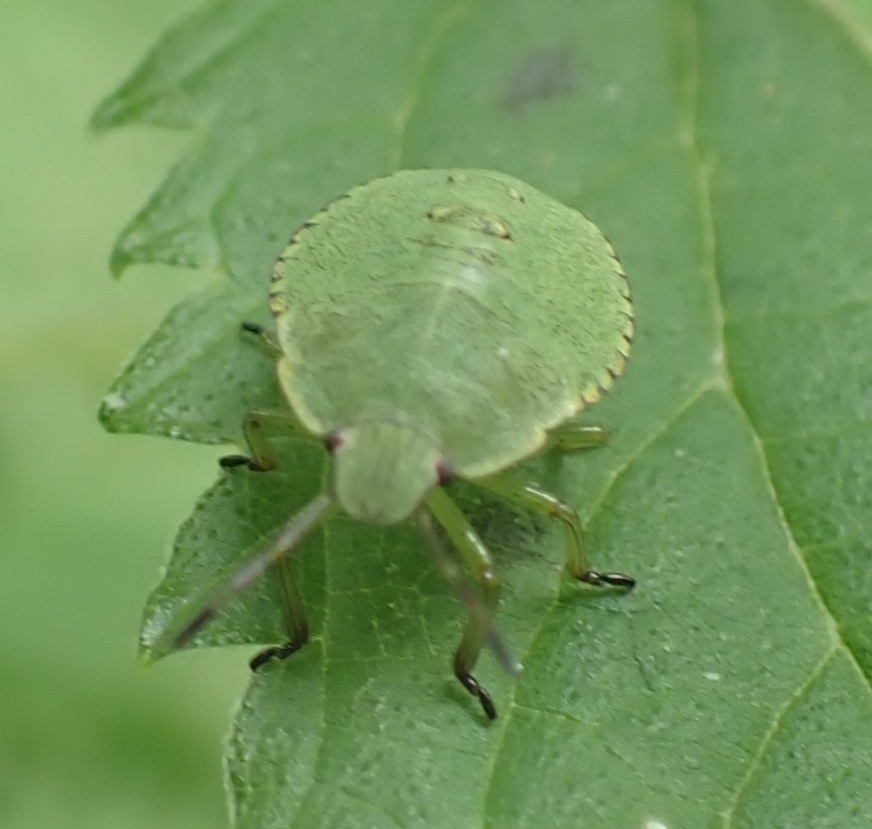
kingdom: Animalia
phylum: Arthropoda
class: Insecta
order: Hemiptera
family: Pentatomidae
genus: Palomena
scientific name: Palomena prasina
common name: Green shieldbug
